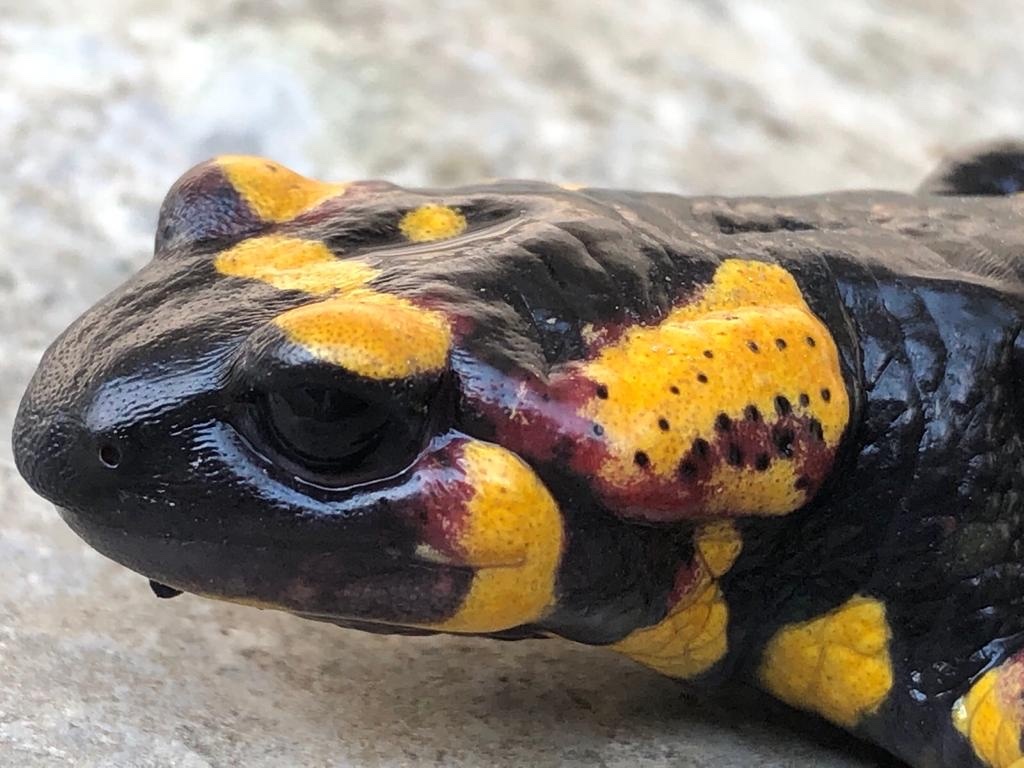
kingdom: Animalia
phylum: Chordata
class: Amphibia
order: Caudata
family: Salamandridae
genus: Salamandra
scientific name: Salamandra salamandra
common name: Fire salamander
